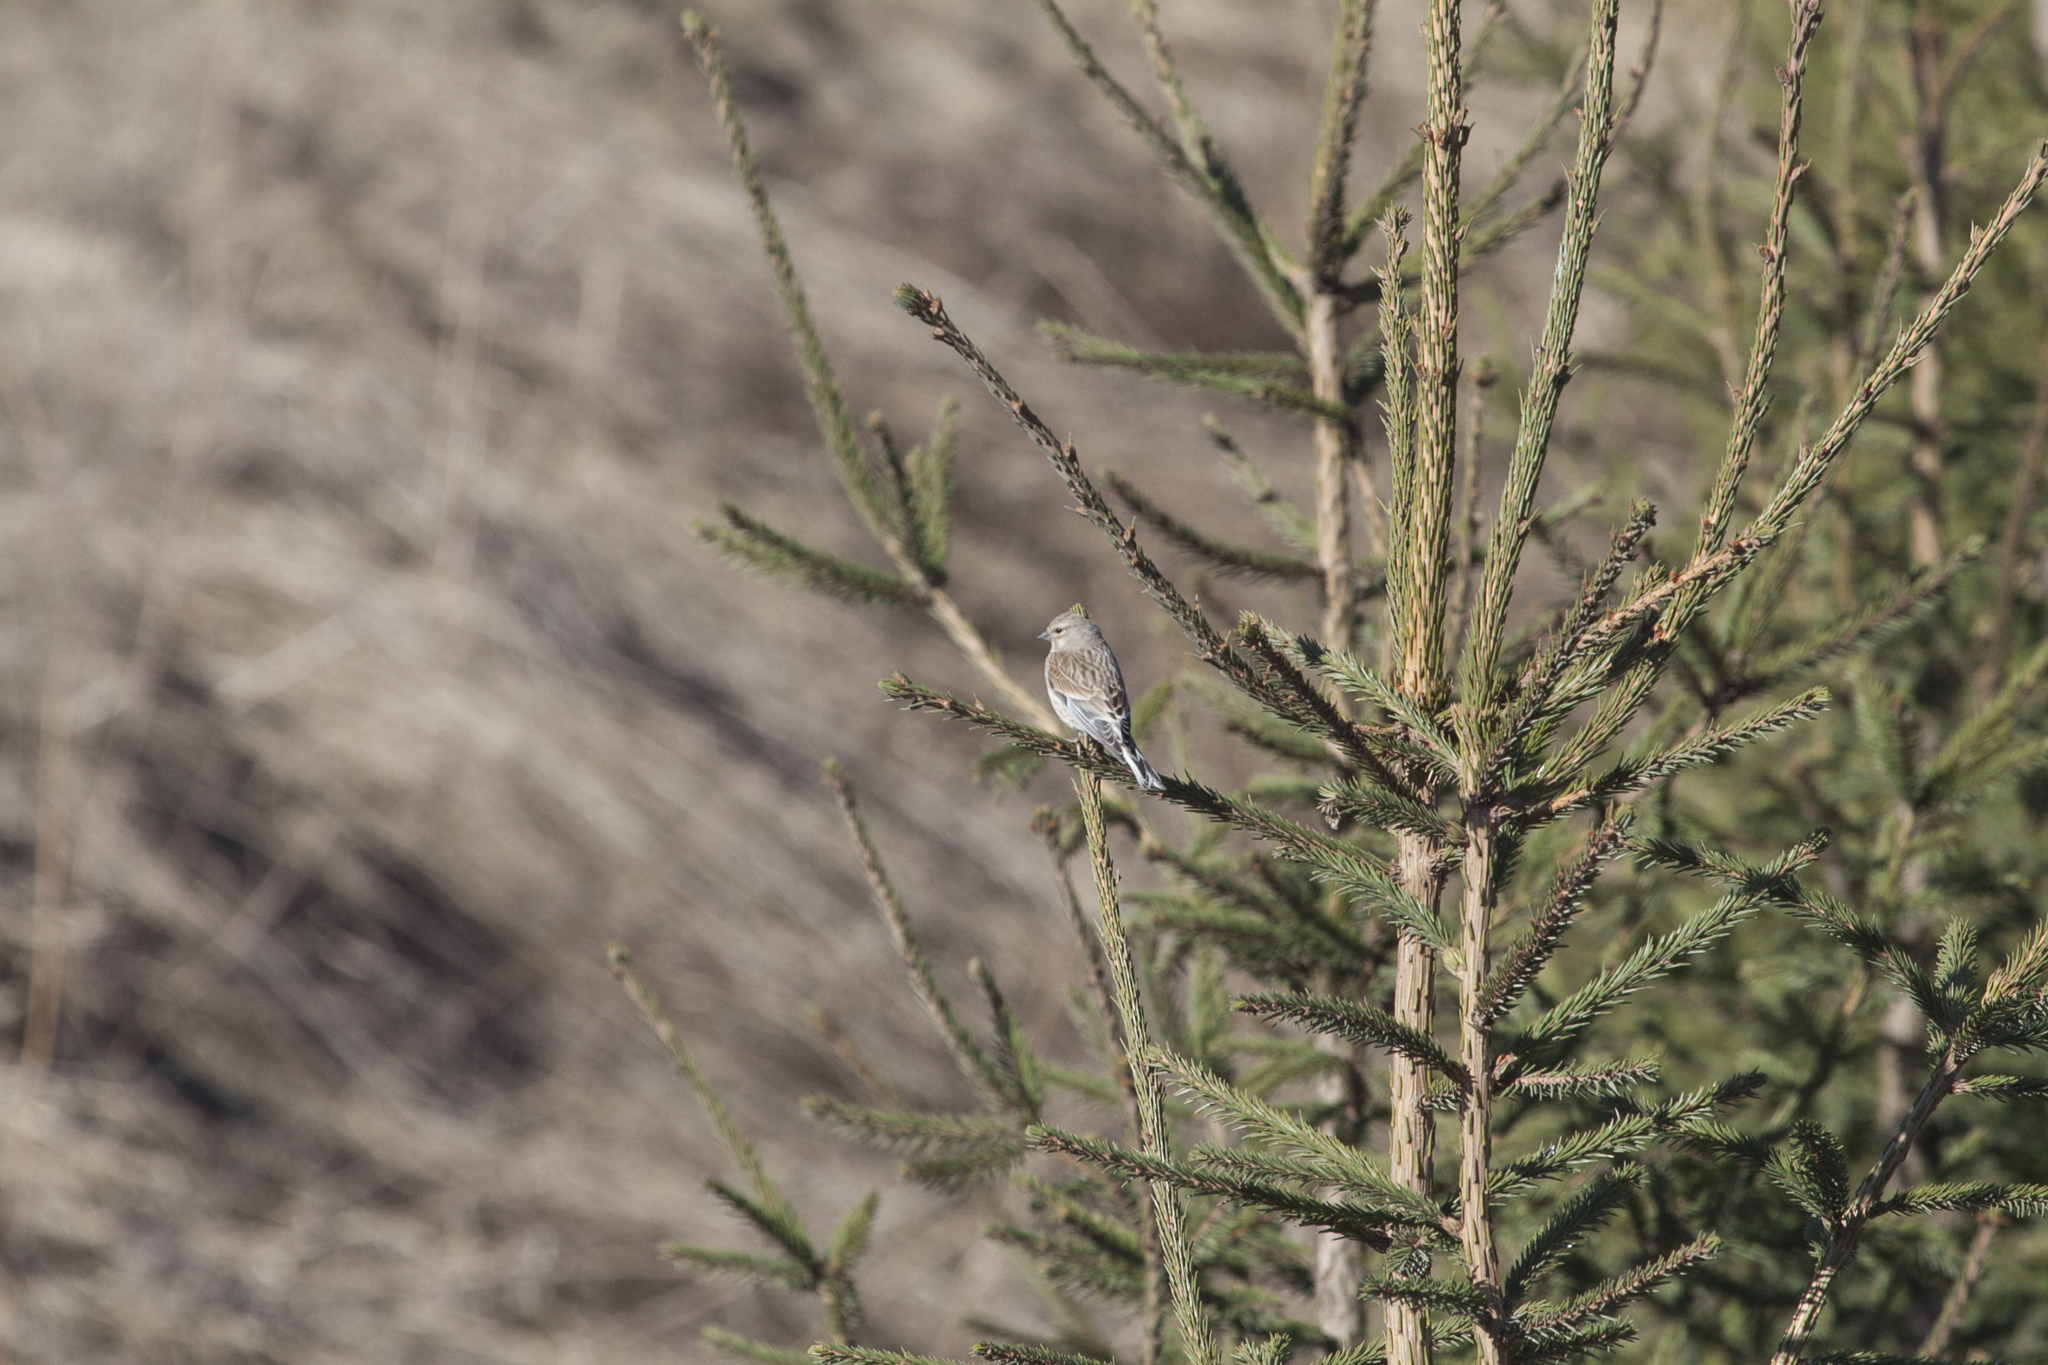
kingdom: Animalia
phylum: Chordata
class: Aves
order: Passeriformes
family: Fringillidae
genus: Linaria
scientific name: Linaria cannabina
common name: Common linnet
